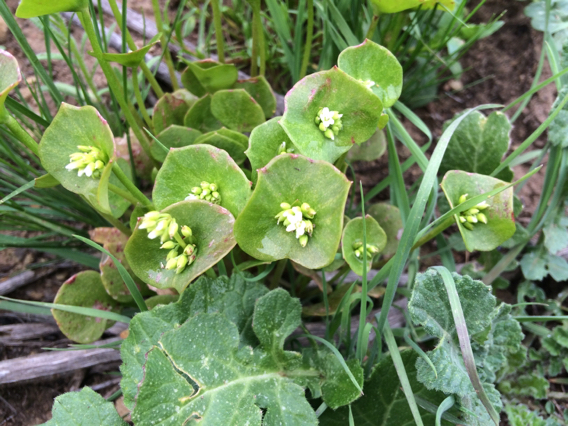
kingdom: Plantae
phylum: Tracheophyta
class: Magnoliopsida
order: Caryophyllales
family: Montiaceae
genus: Claytonia
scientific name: Claytonia perfoliata
